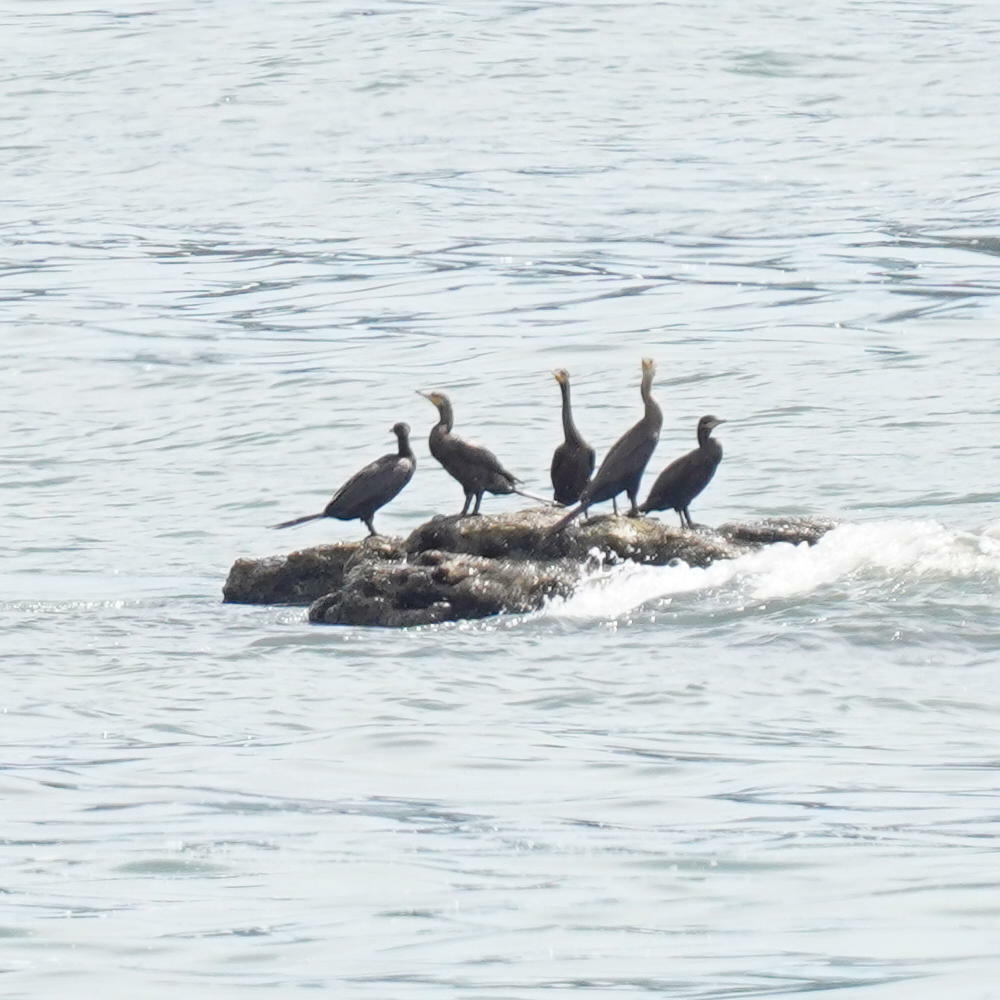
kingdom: Animalia
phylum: Chordata
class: Aves
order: Suliformes
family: Phalacrocoracidae
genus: Phalacrocorax
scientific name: Phalacrocorax brasilianus
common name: Neotropic cormorant
